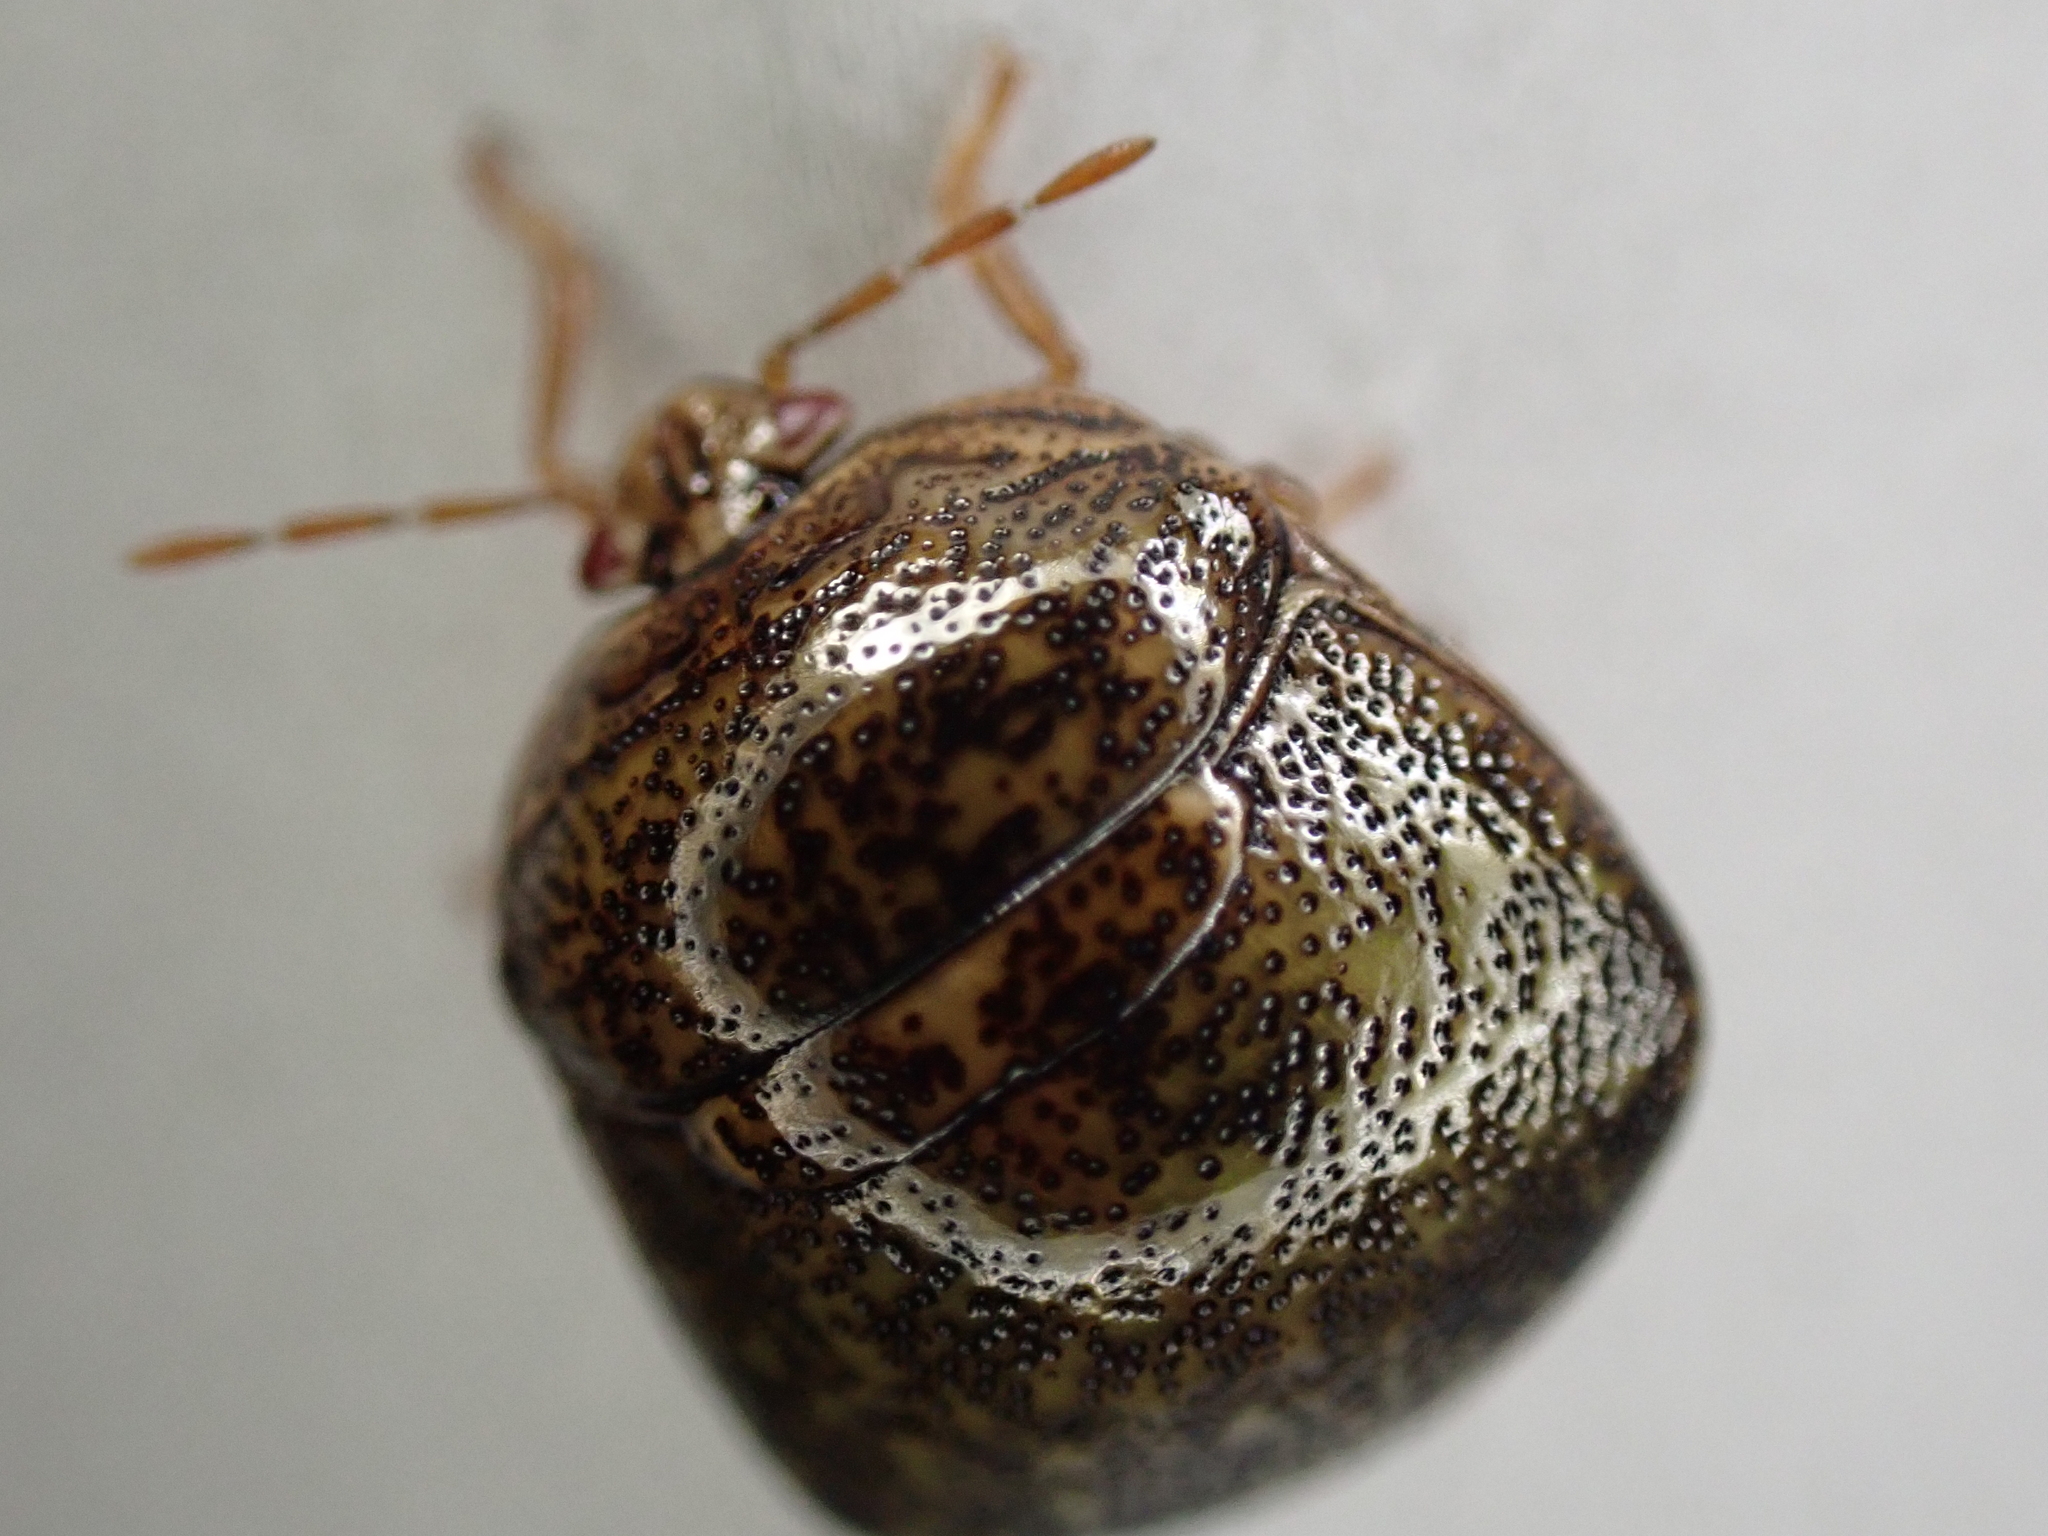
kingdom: Animalia
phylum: Arthropoda
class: Insecta
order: Hemiptera
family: Plataspidae
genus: Megacopta
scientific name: Megacopta cribraria
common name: Bean plataspid
